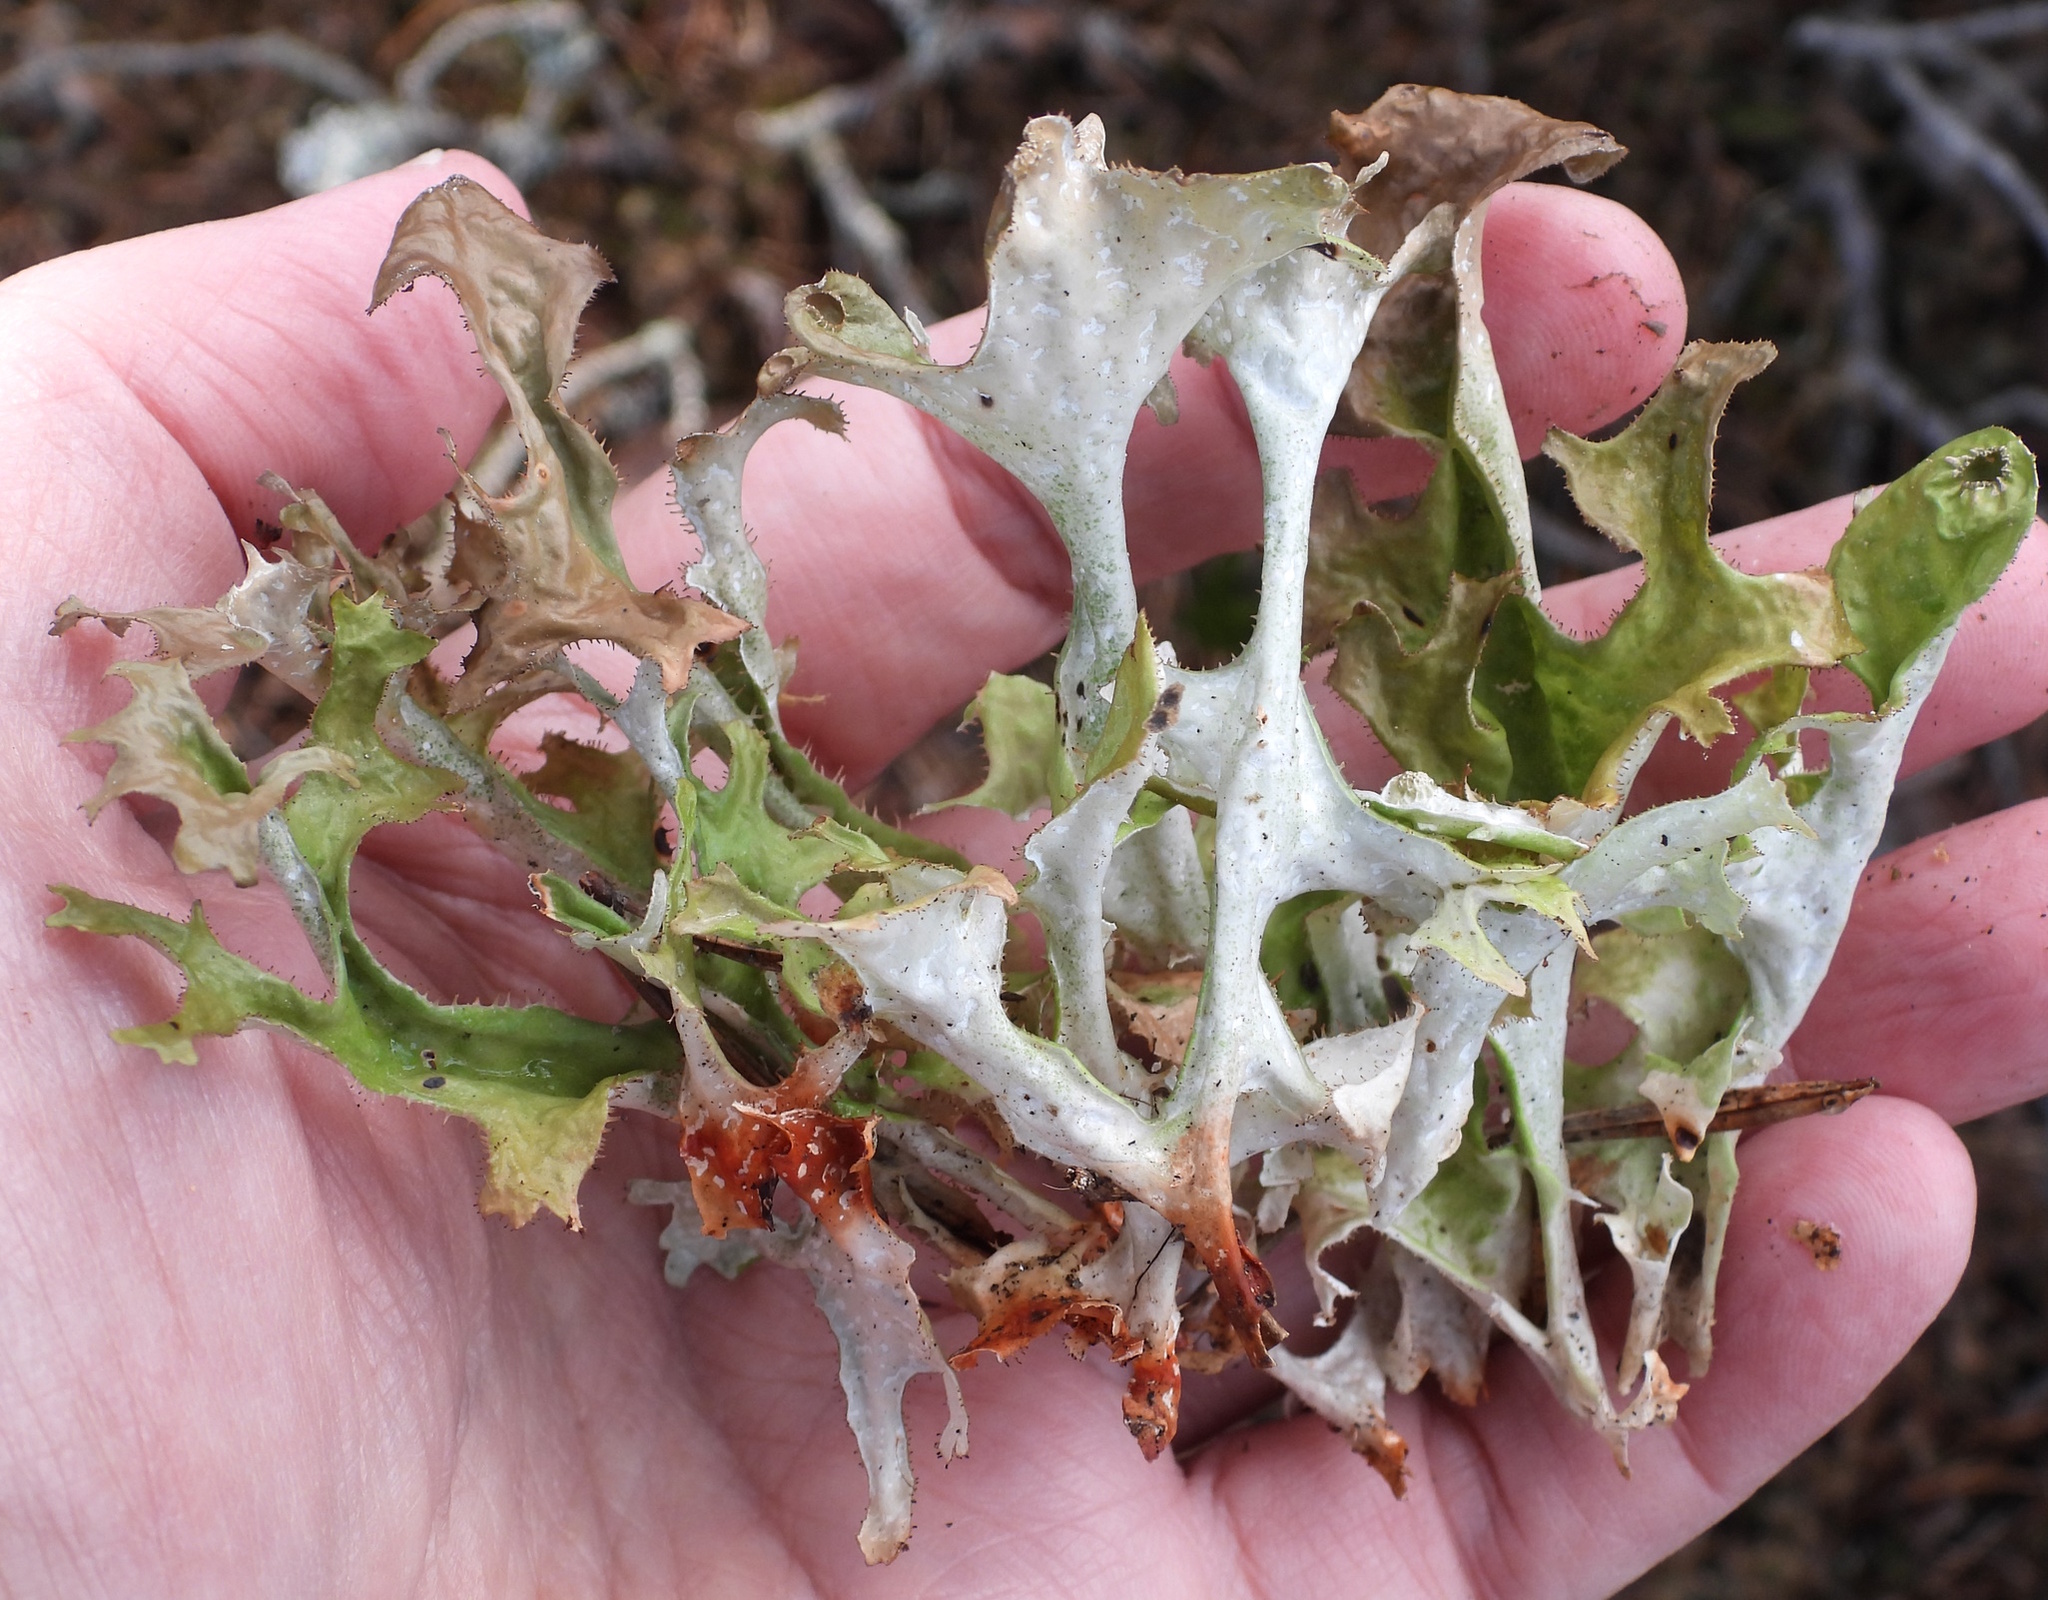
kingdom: Fungi
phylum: Ascomycota
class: Lecanoromycetes
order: Lecanorales
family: Parmeliaceae
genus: Cetraria
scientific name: Cetraria islandica
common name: Iceland lichen
